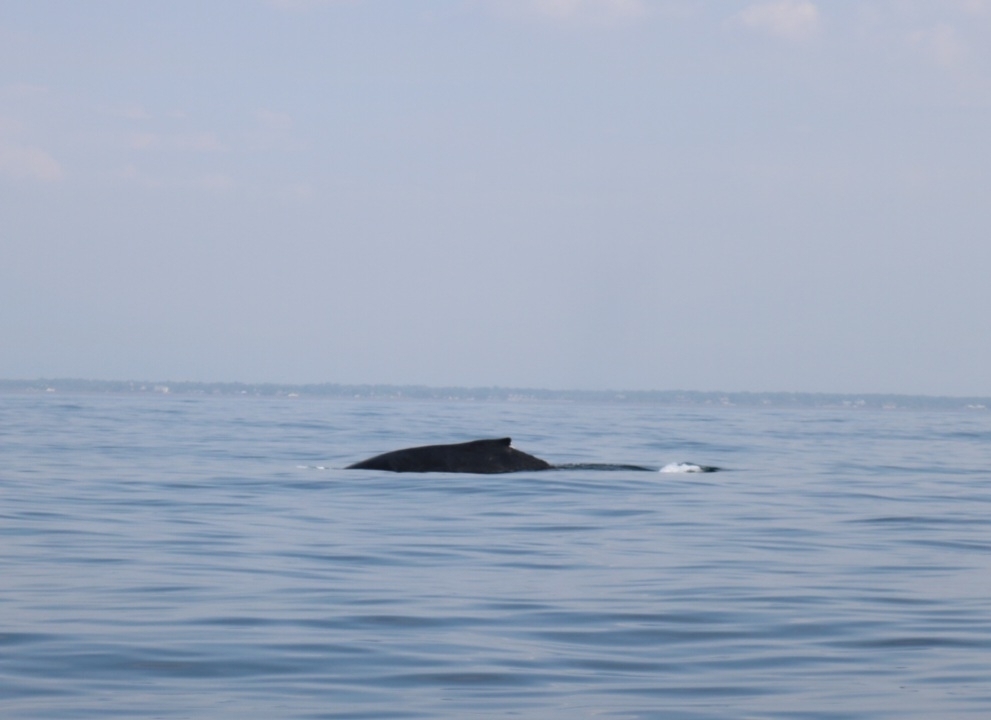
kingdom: Animalia
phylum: Chordata
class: Mammalia
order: Cetacea
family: Balaenopteridae
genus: Megaptera
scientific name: Megaptera novaeangliae
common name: Humpback whale
